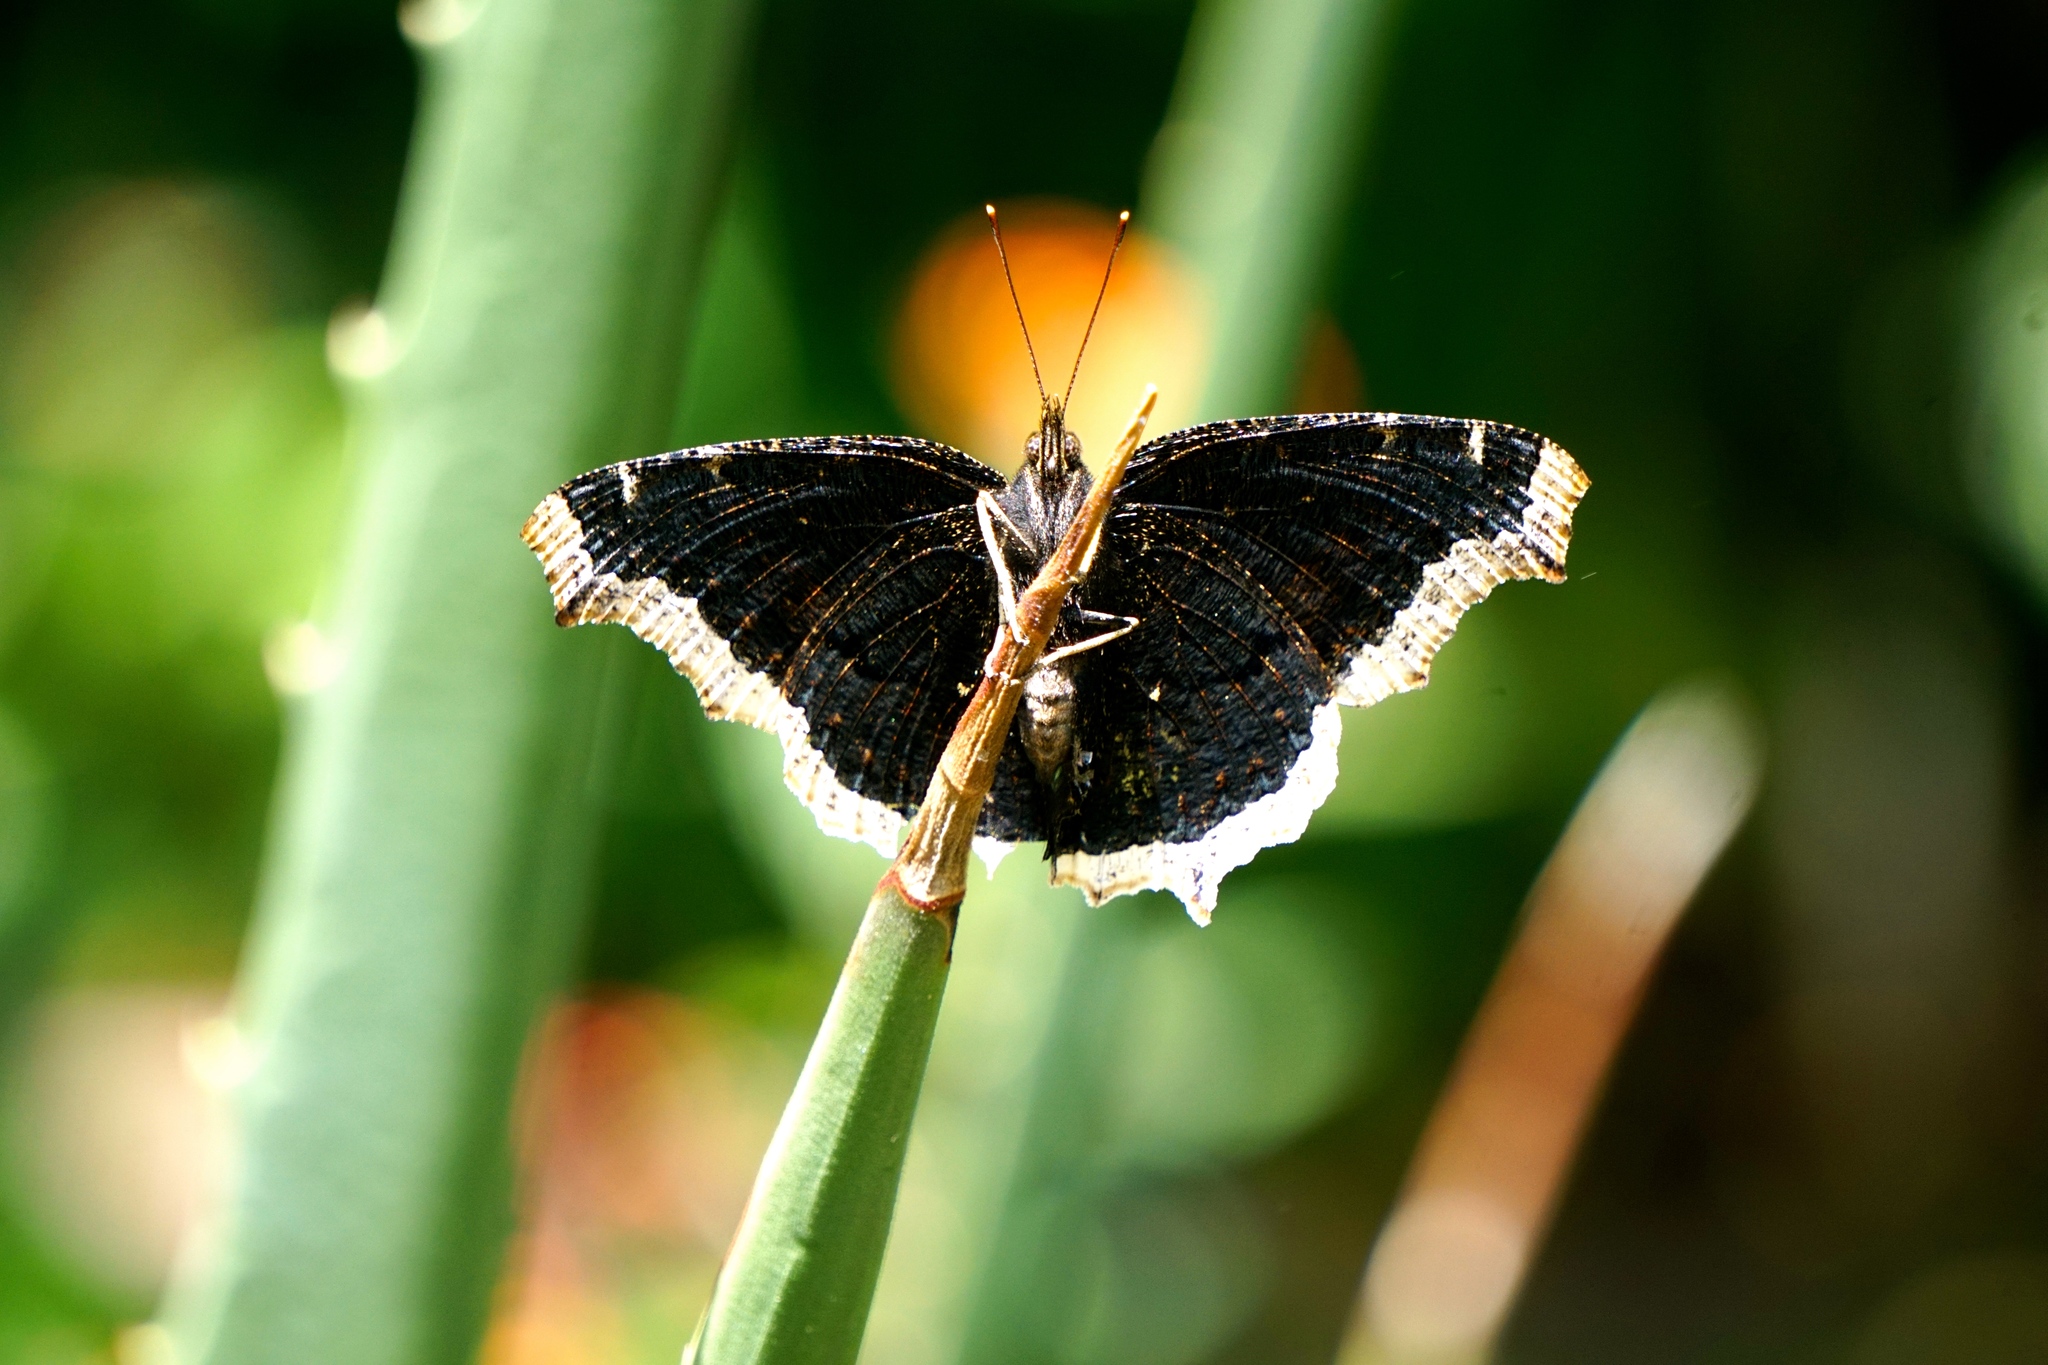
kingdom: Animalia
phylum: Arthropoda
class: Insecta
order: Lepidoptera
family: Nymphalidae
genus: Nymphalis
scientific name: Nymphalis antiopa
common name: Camberwell beauty
